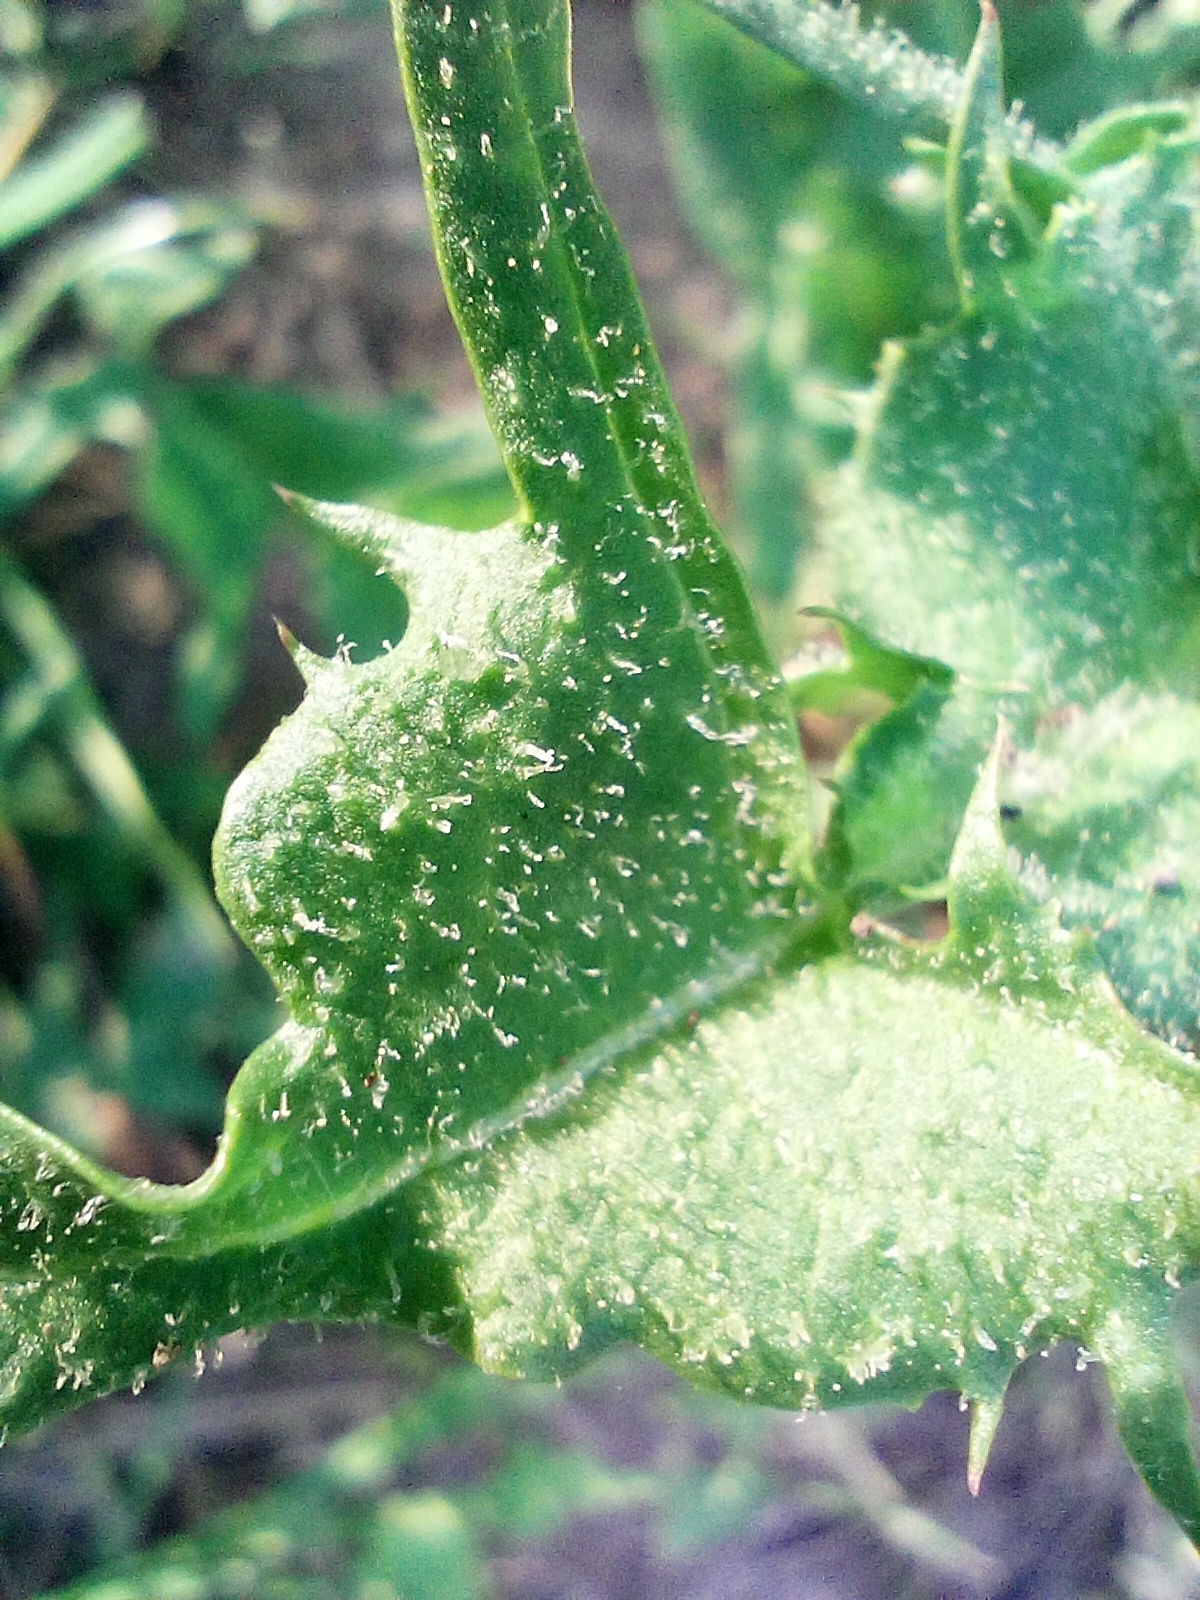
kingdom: Plantae
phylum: Tracheophyta
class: Magnoliopsida
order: Asterales
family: Asteraceae
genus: Taraxacum
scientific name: Taraxacum lacistophylloides
